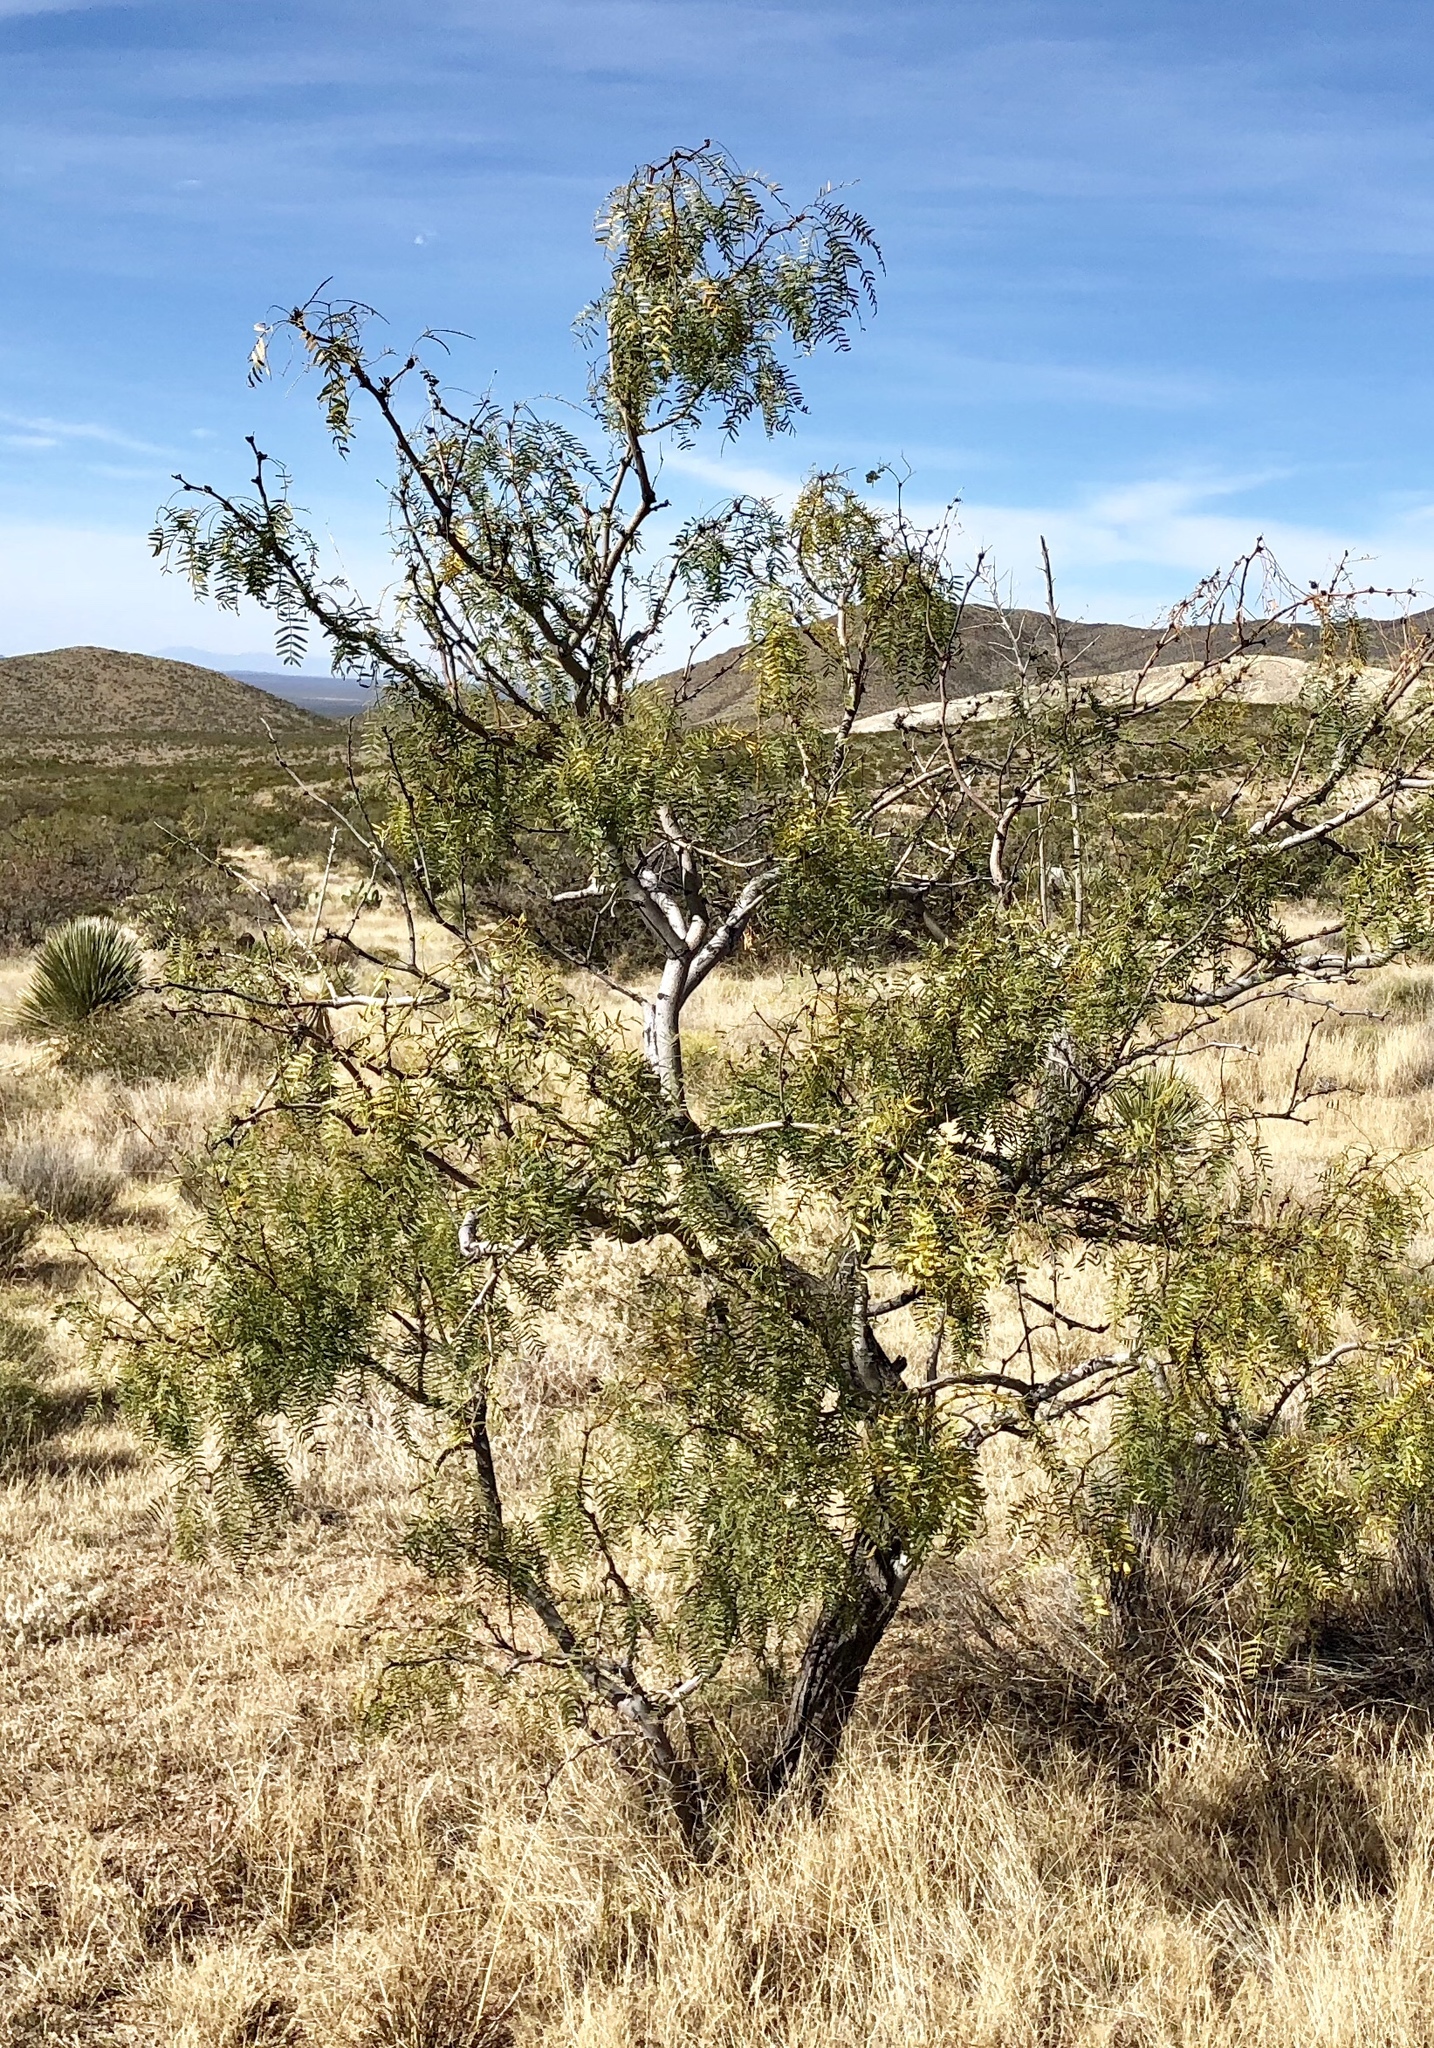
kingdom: Plantae
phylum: Tracheophyta
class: Magnoliopsida
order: Fabales
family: Fabaceae
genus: Prosopis
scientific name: Prosopis glandulosa
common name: Honey mesquite
